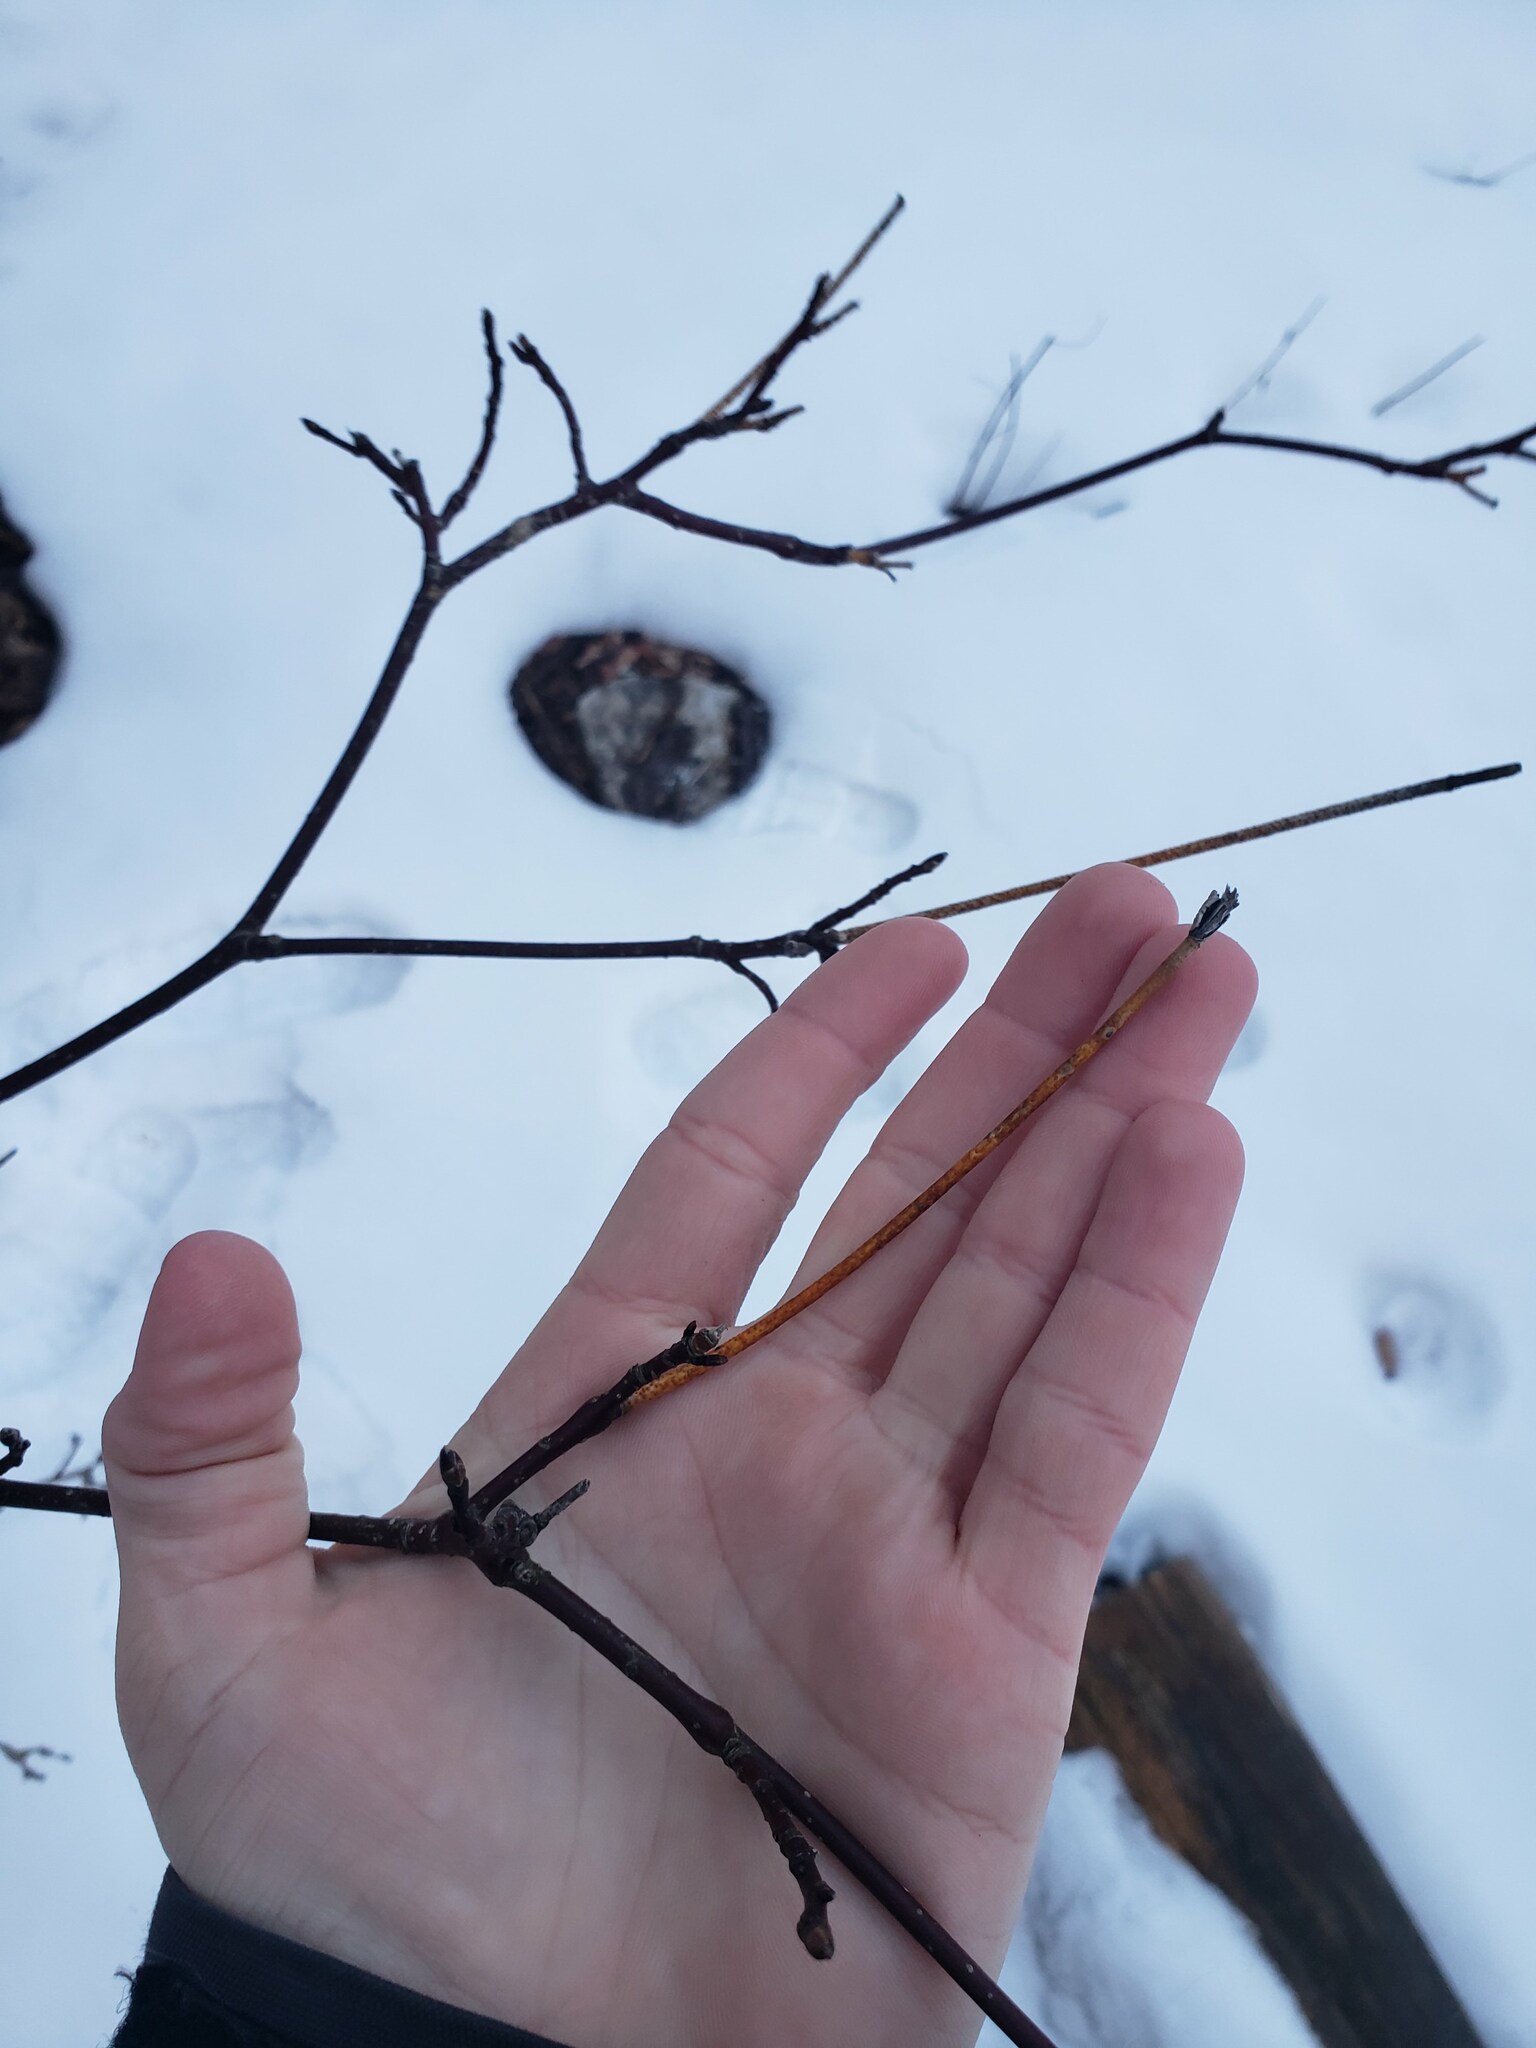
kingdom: Fungi
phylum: Ascomycota
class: Sordariomycetes
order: Diaporthales
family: Cryphonectriaceae
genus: Aurantioporthe
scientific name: Aurantioporthe corni
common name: Dogwood golden canker
